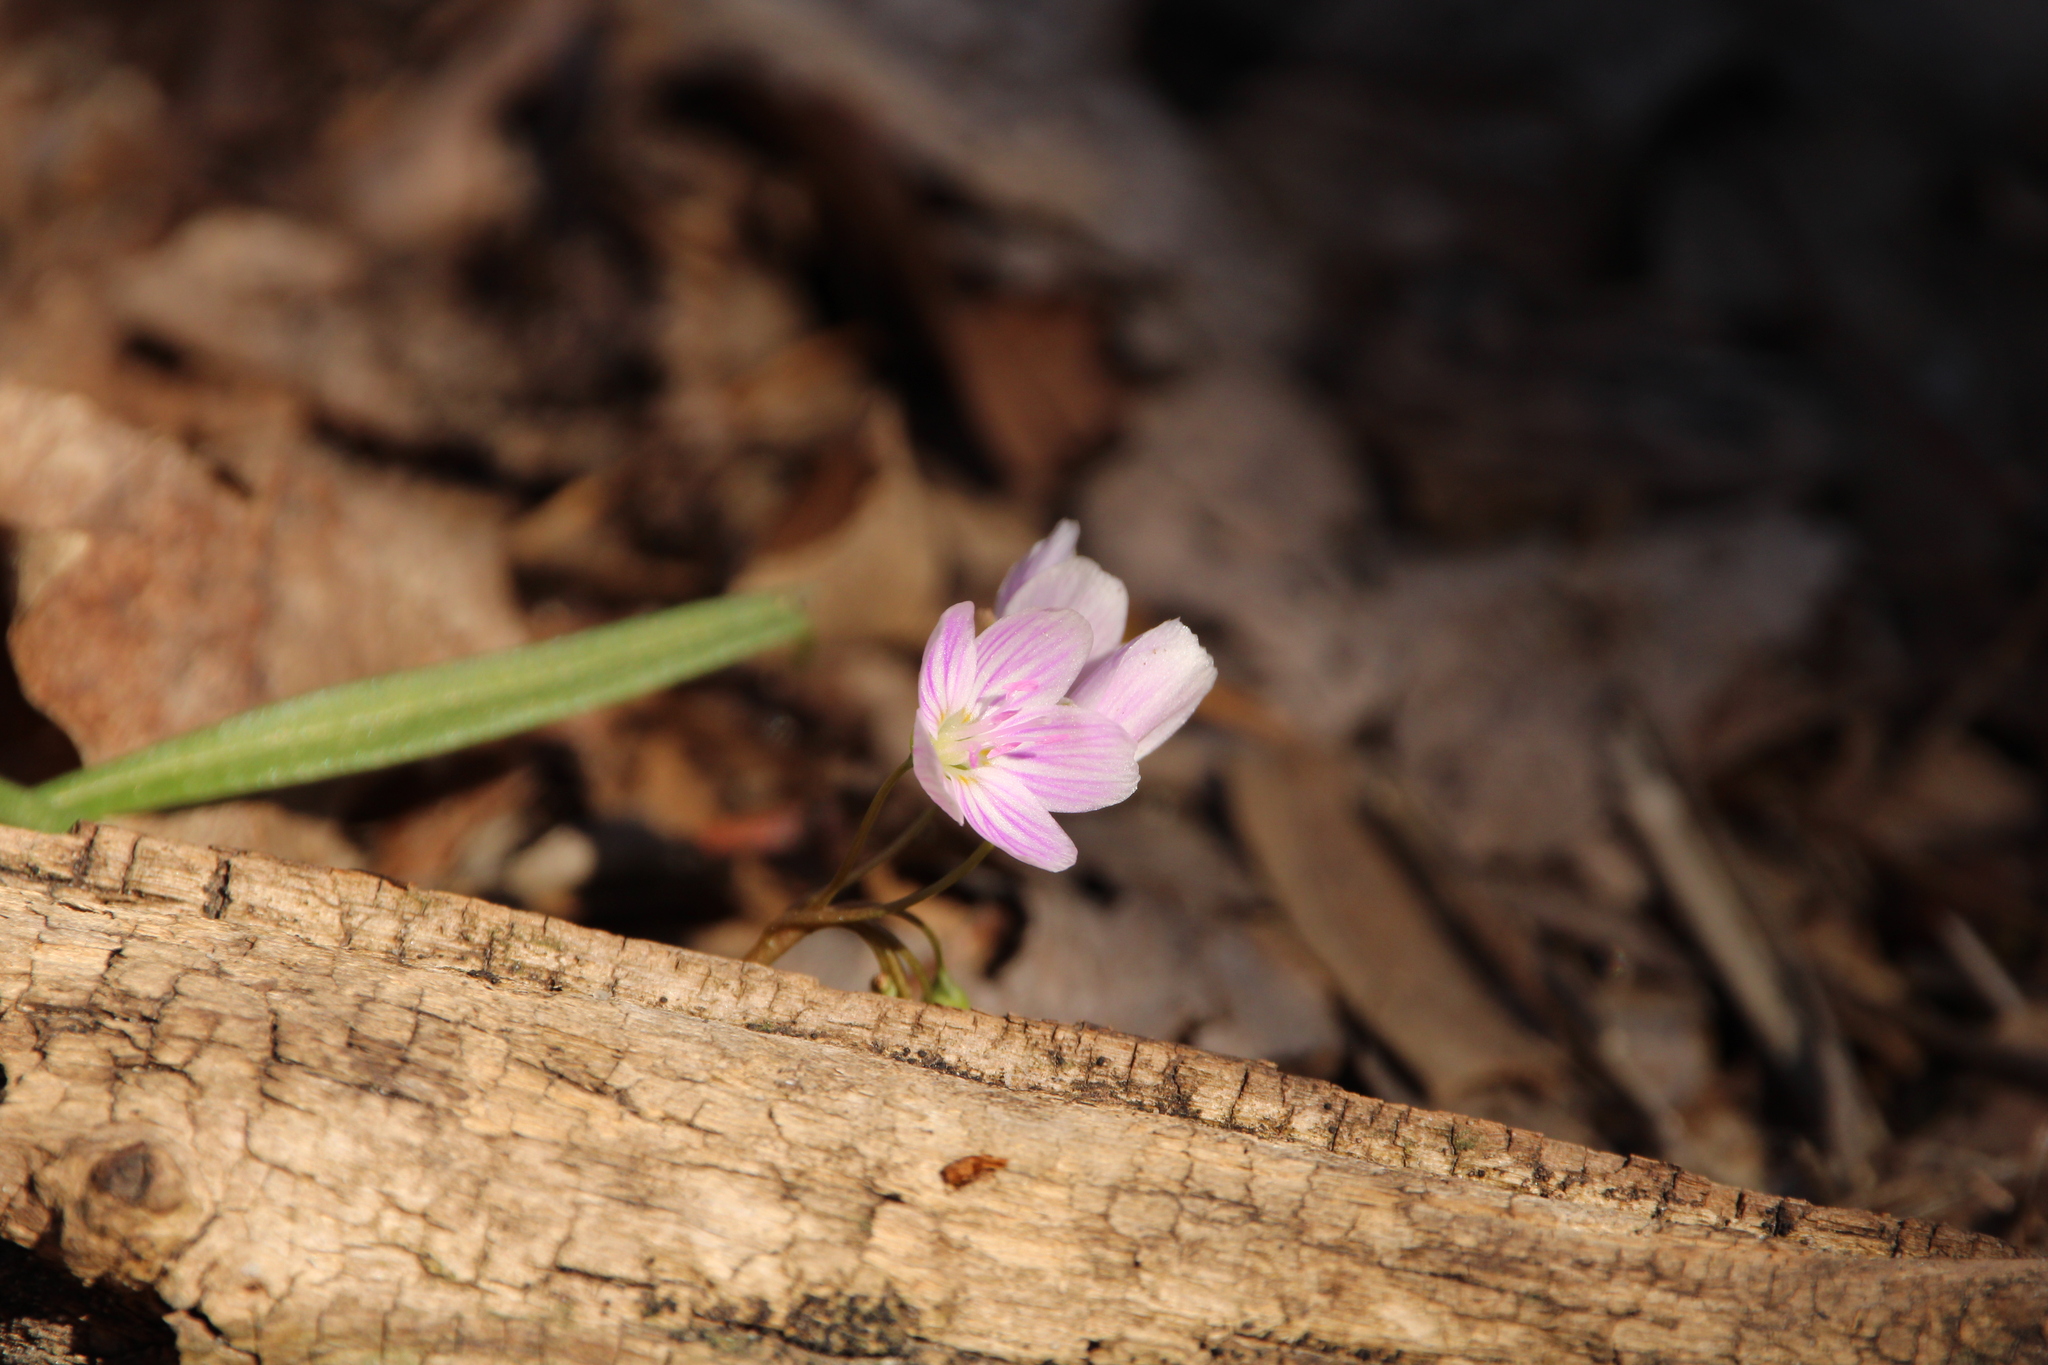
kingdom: Plantae
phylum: Tracheophyta
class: Magnoliopsida
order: Caryophyllales
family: Montiaceae
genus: Claytonia
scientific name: Claytonia virginica
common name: Virginia springbeauty
